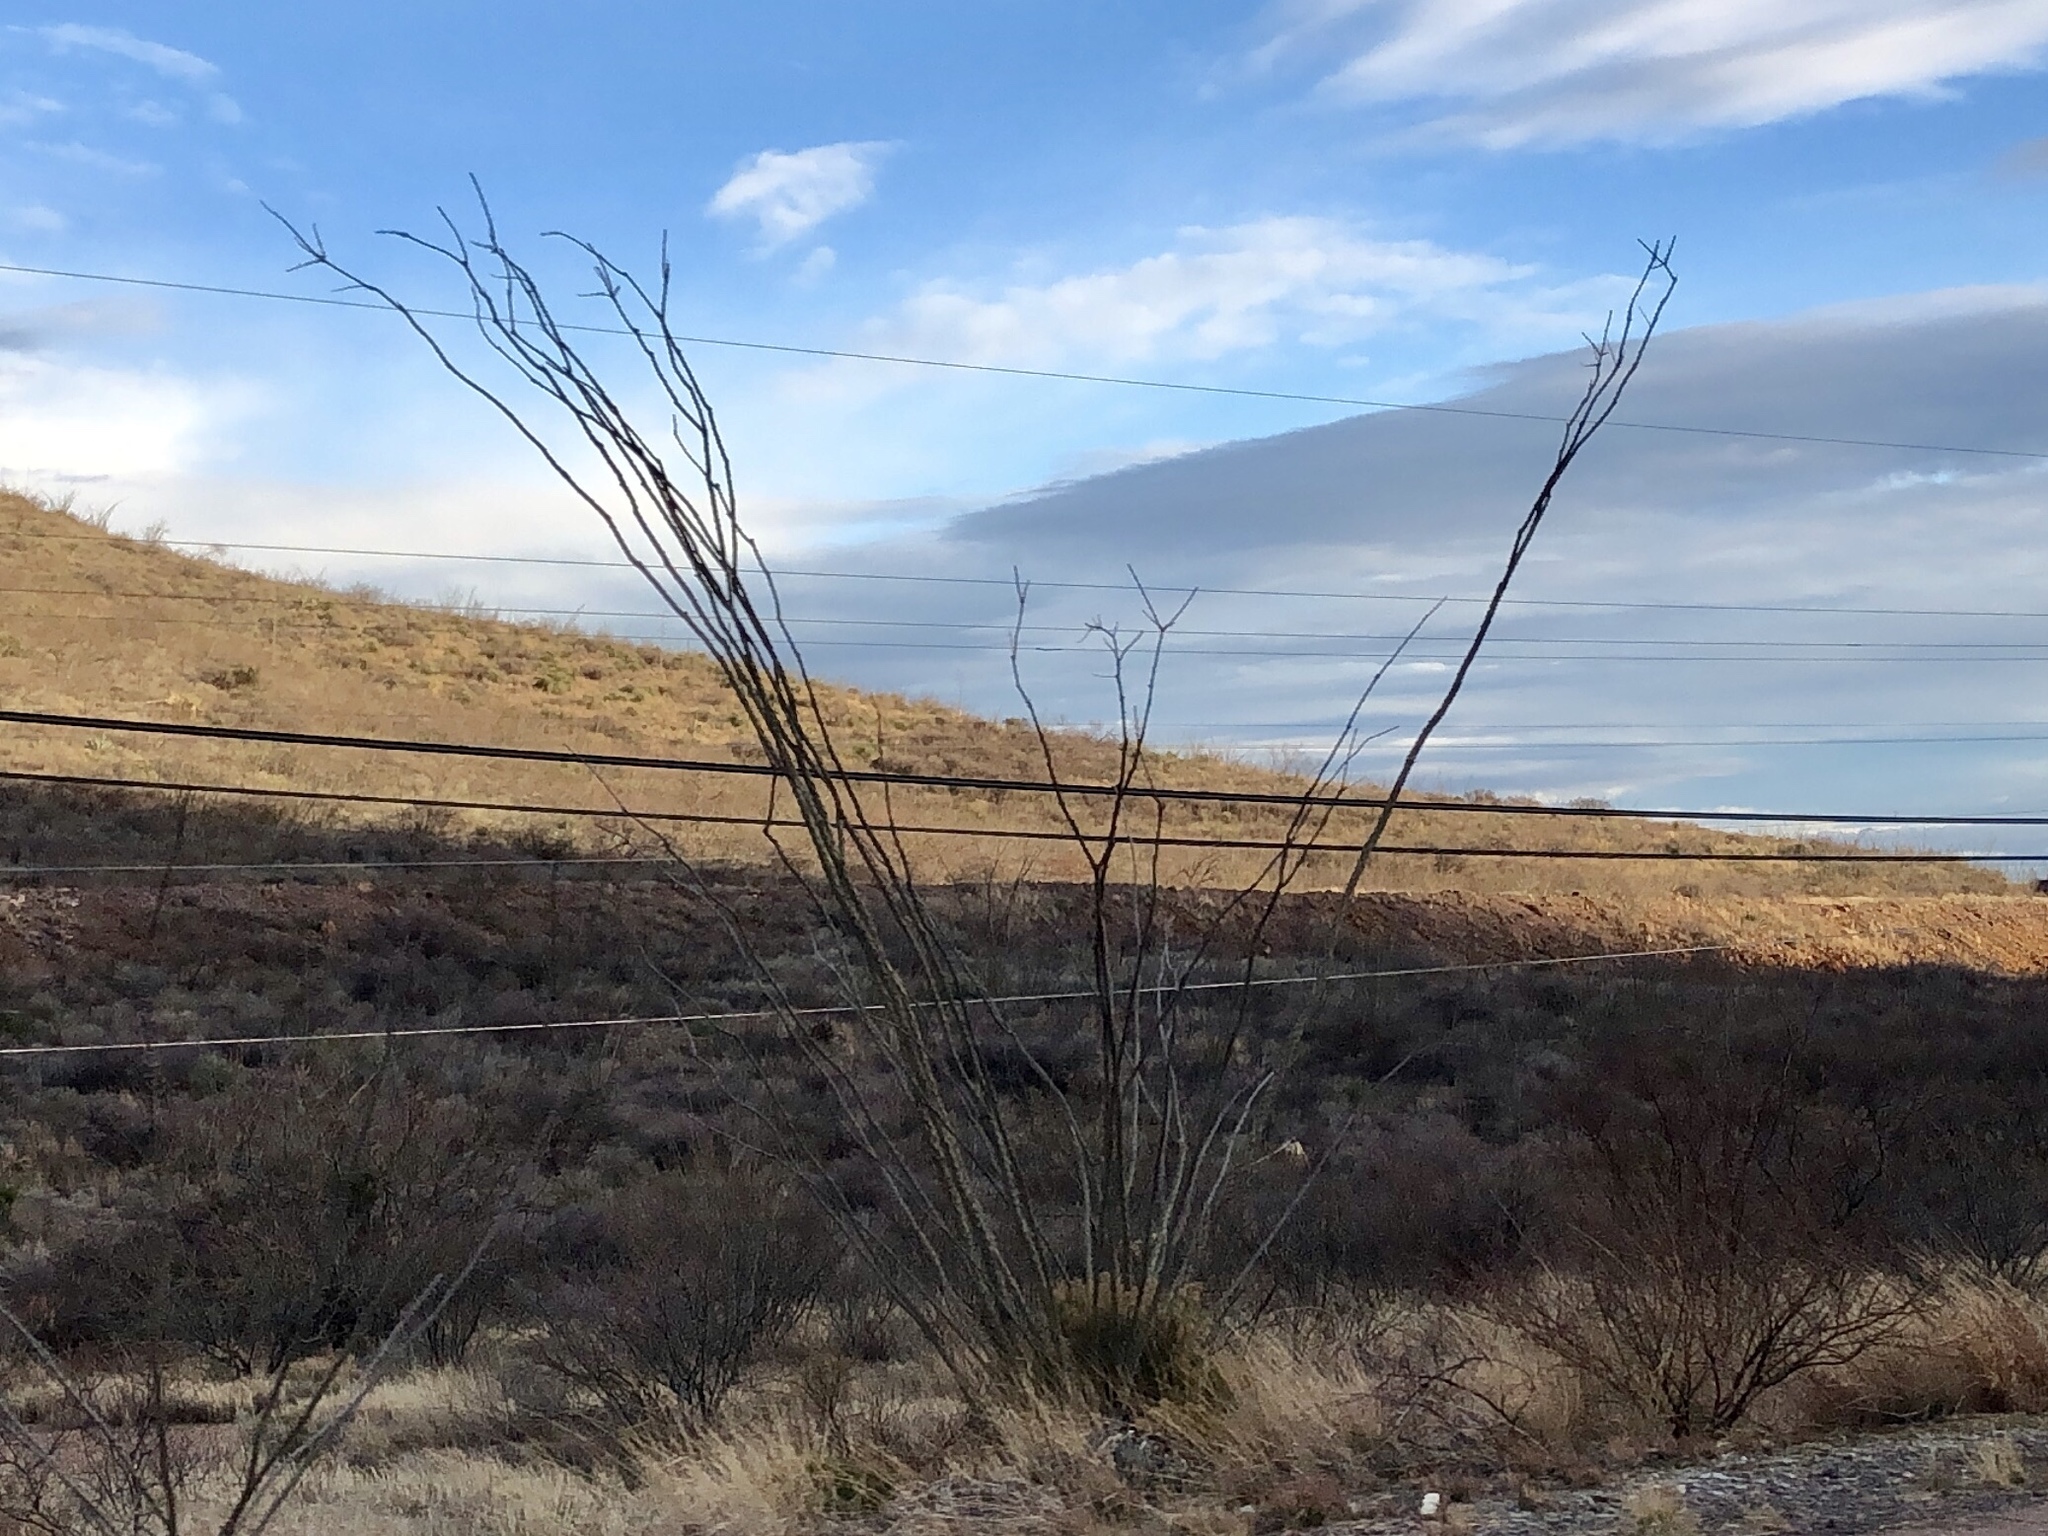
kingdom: Plantae
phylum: Tracheophyta
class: Magnoliopsida
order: Ericales
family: Fouquieriaceae
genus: Fouquieria
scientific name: Fouquieria splendens
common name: Vine-cactus
